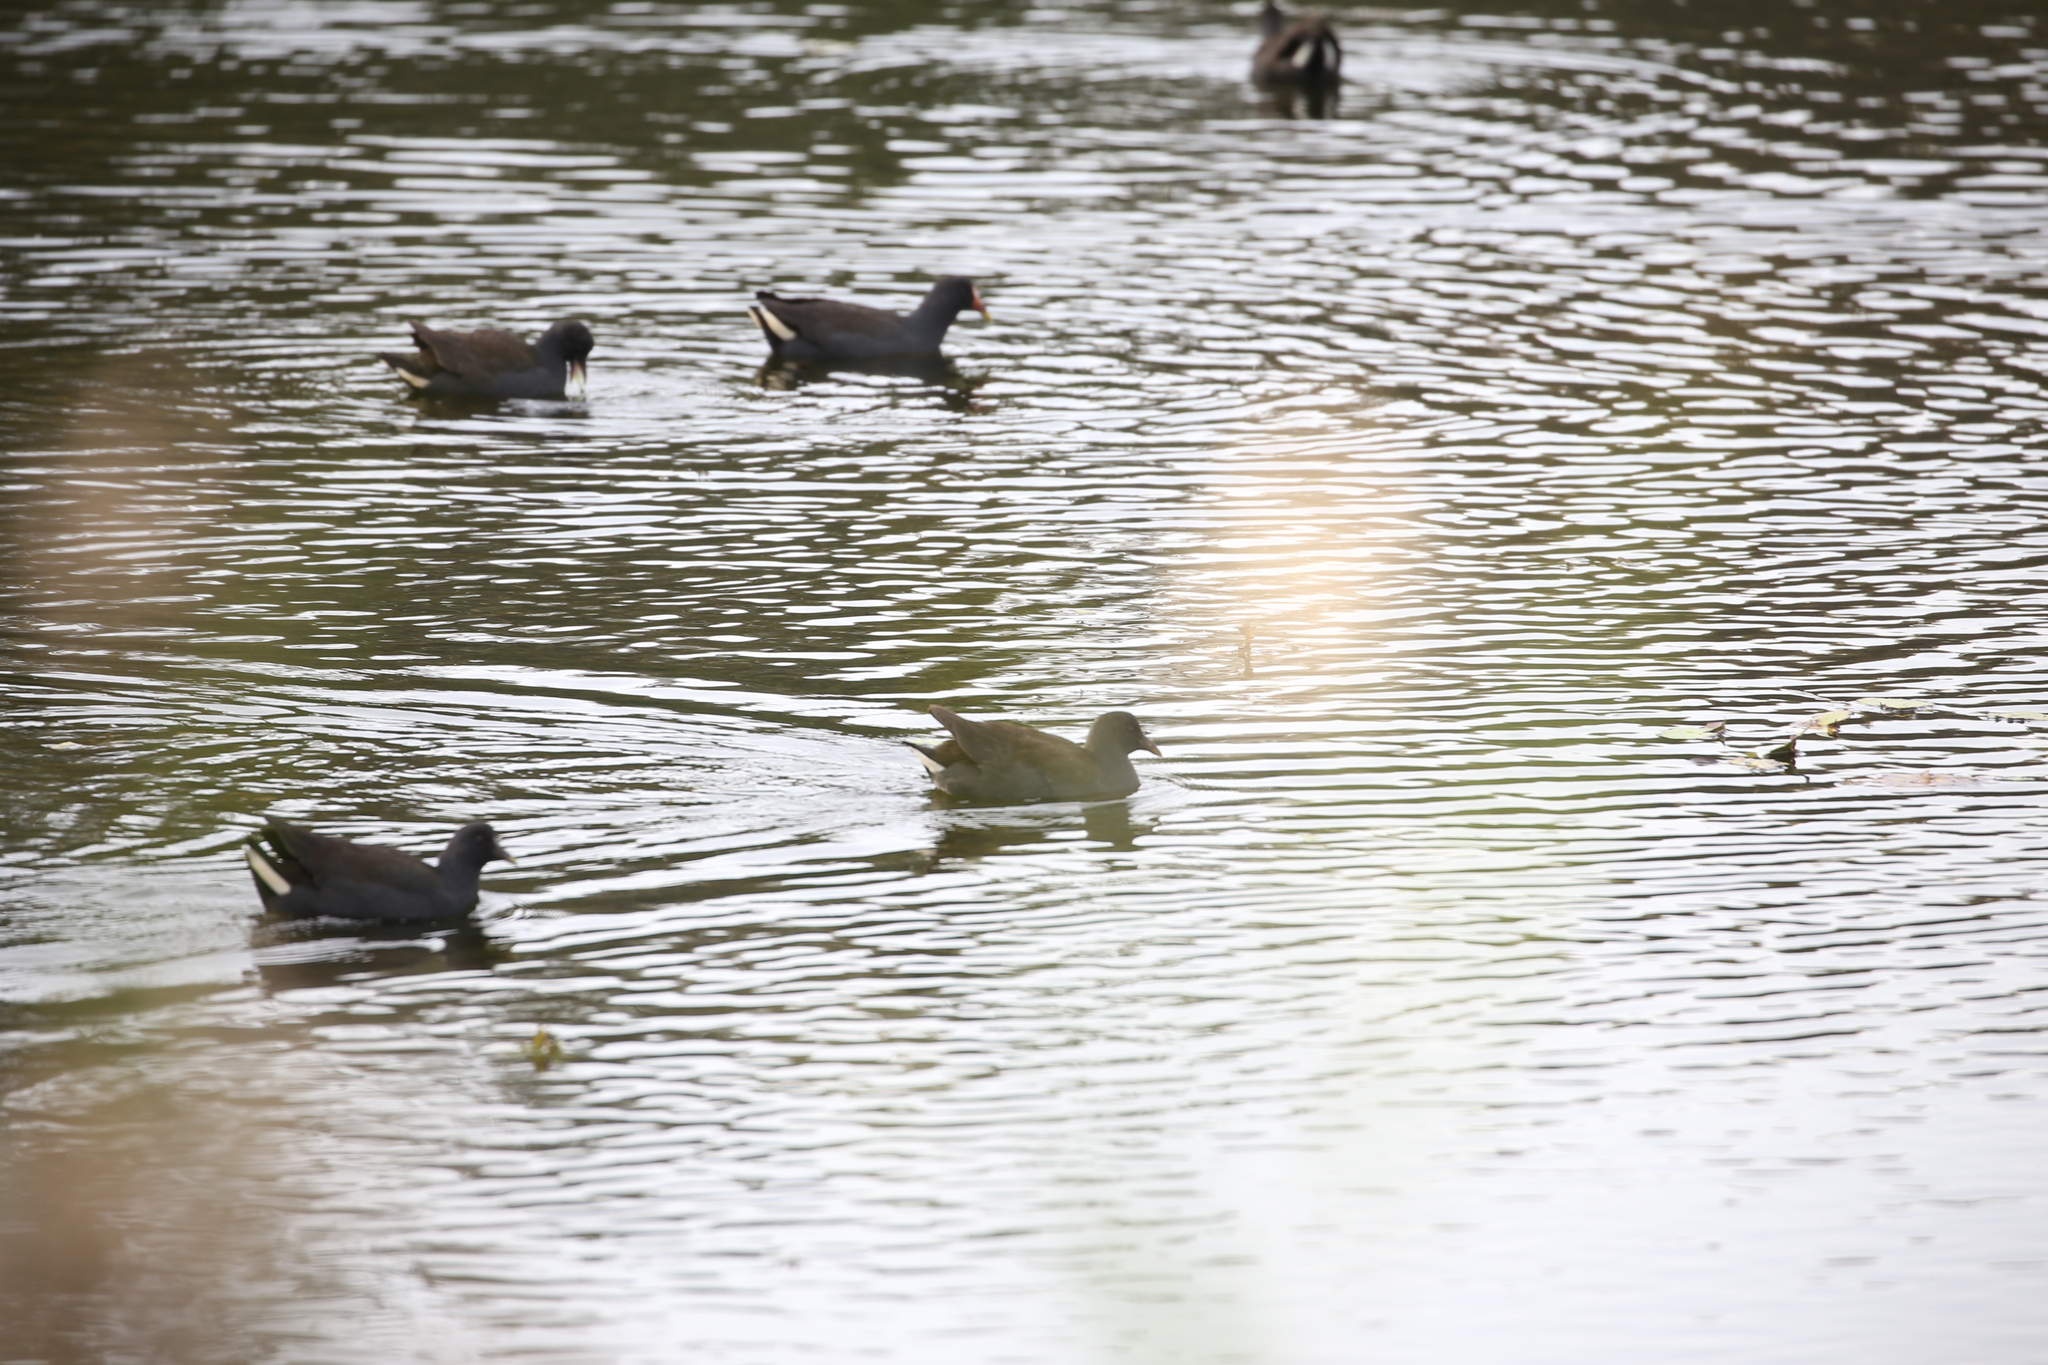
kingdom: Animalia
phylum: Chordata
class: Aves
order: Gruiformes
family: Rallidae
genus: Gallinula
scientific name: Gallinula tenebrosa
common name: Dusky moorhen
